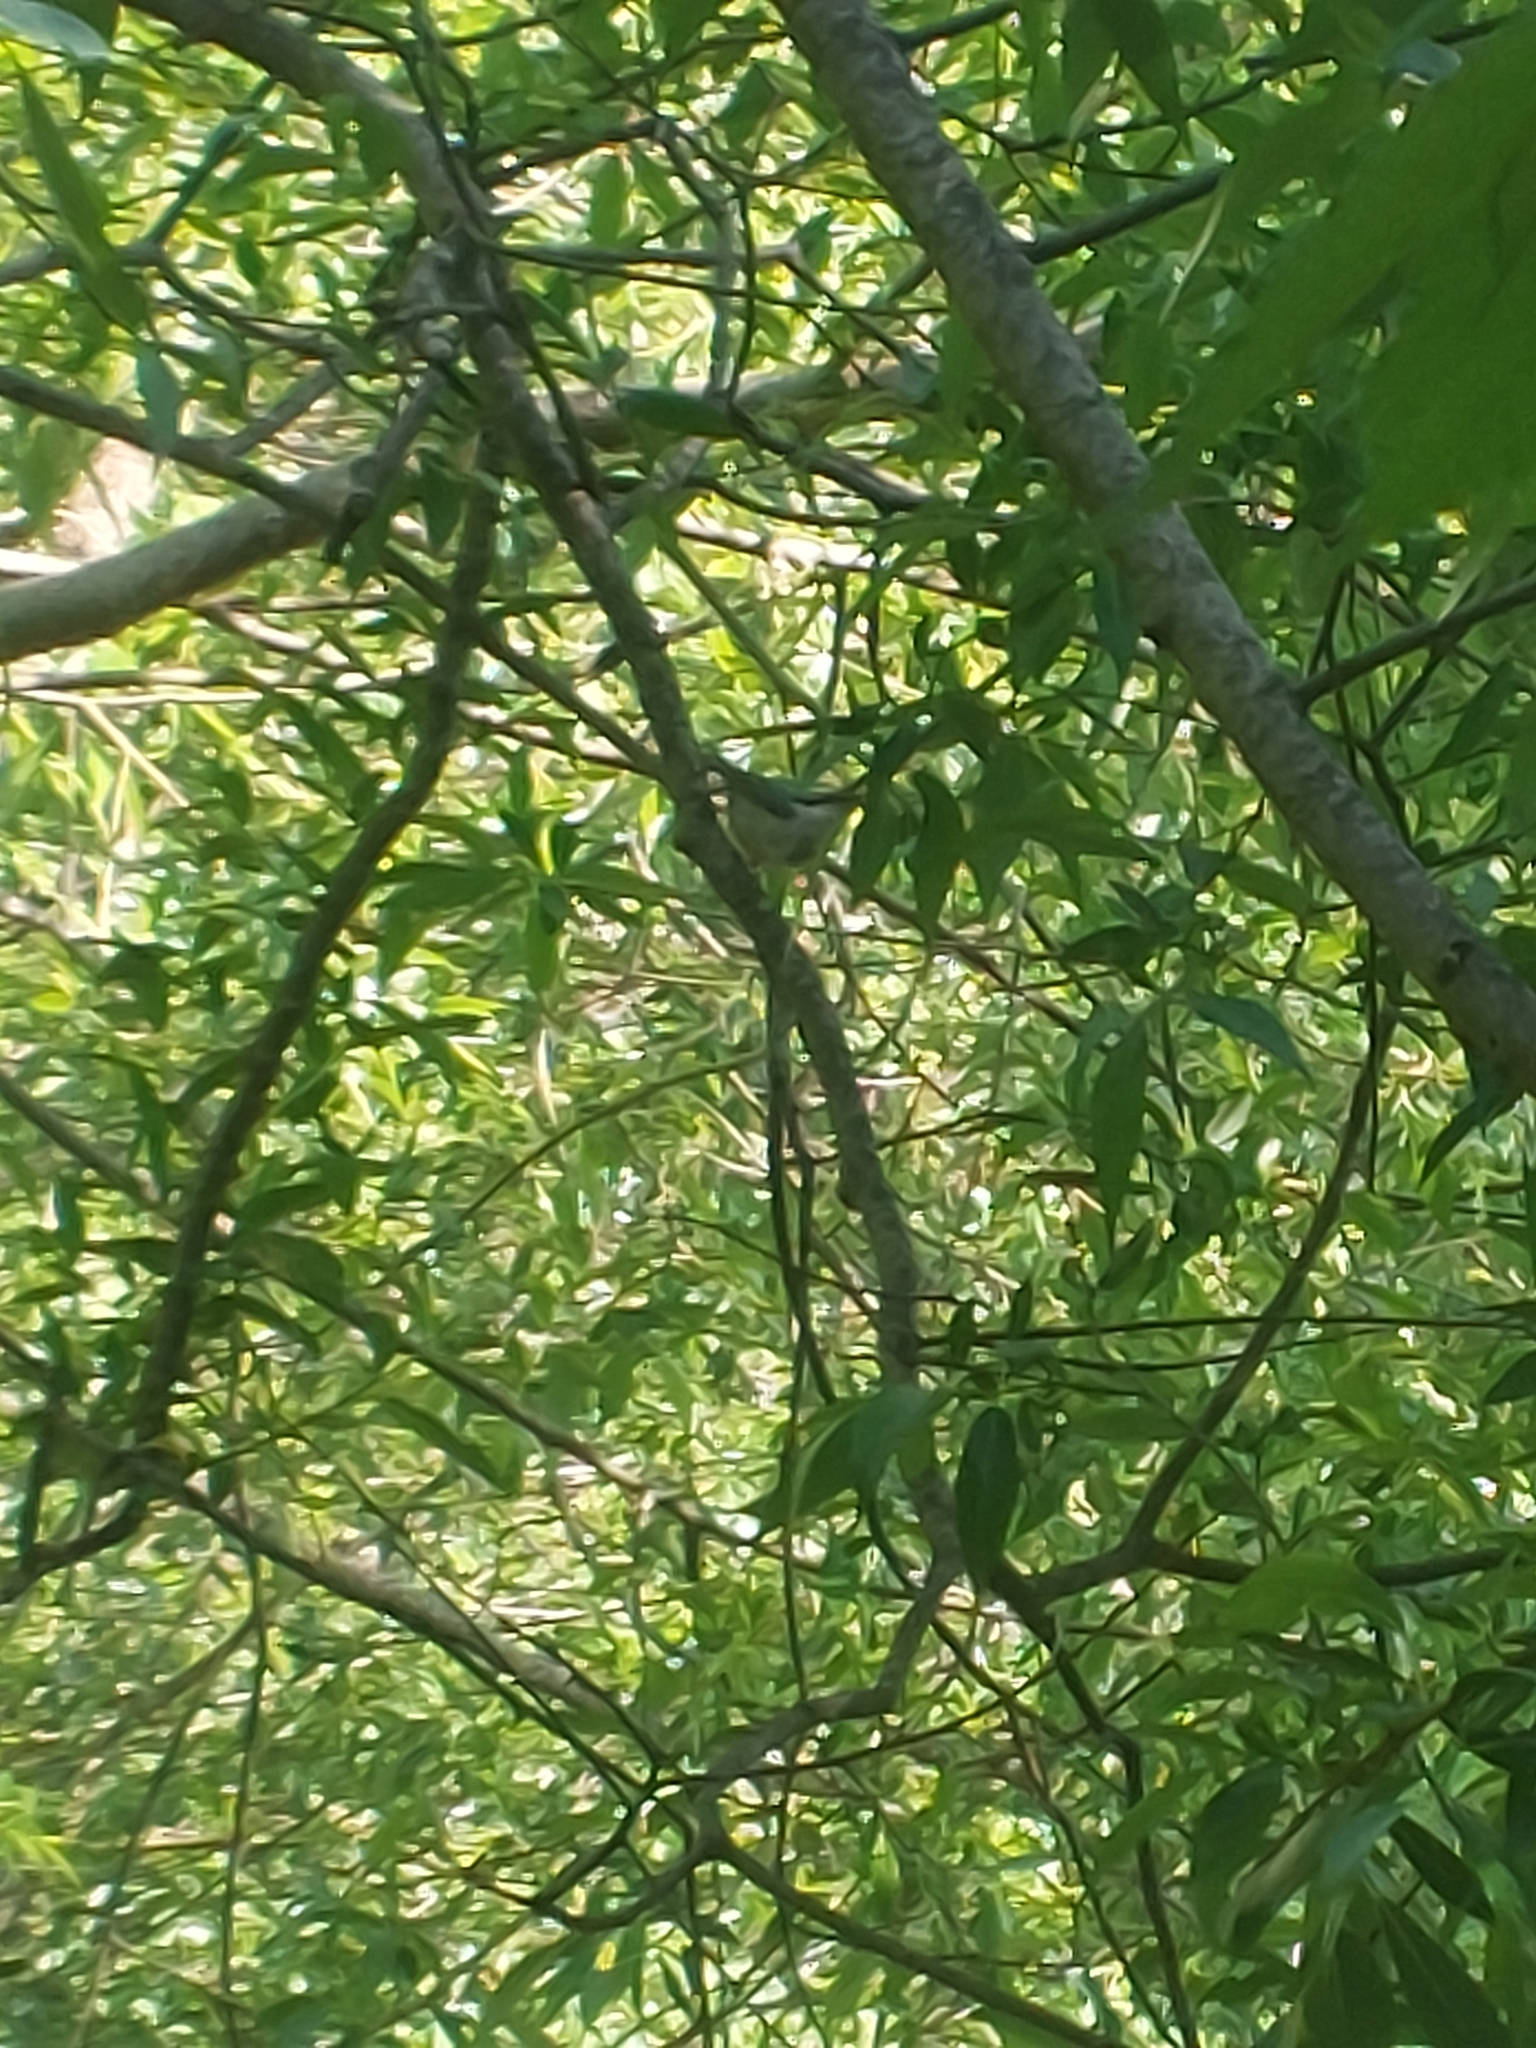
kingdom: Animalia
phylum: Chordata
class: Aves
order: Passeriformes
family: Sittidae
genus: Sitta
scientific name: Sitta europaea
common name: Eurasian nuthatch
